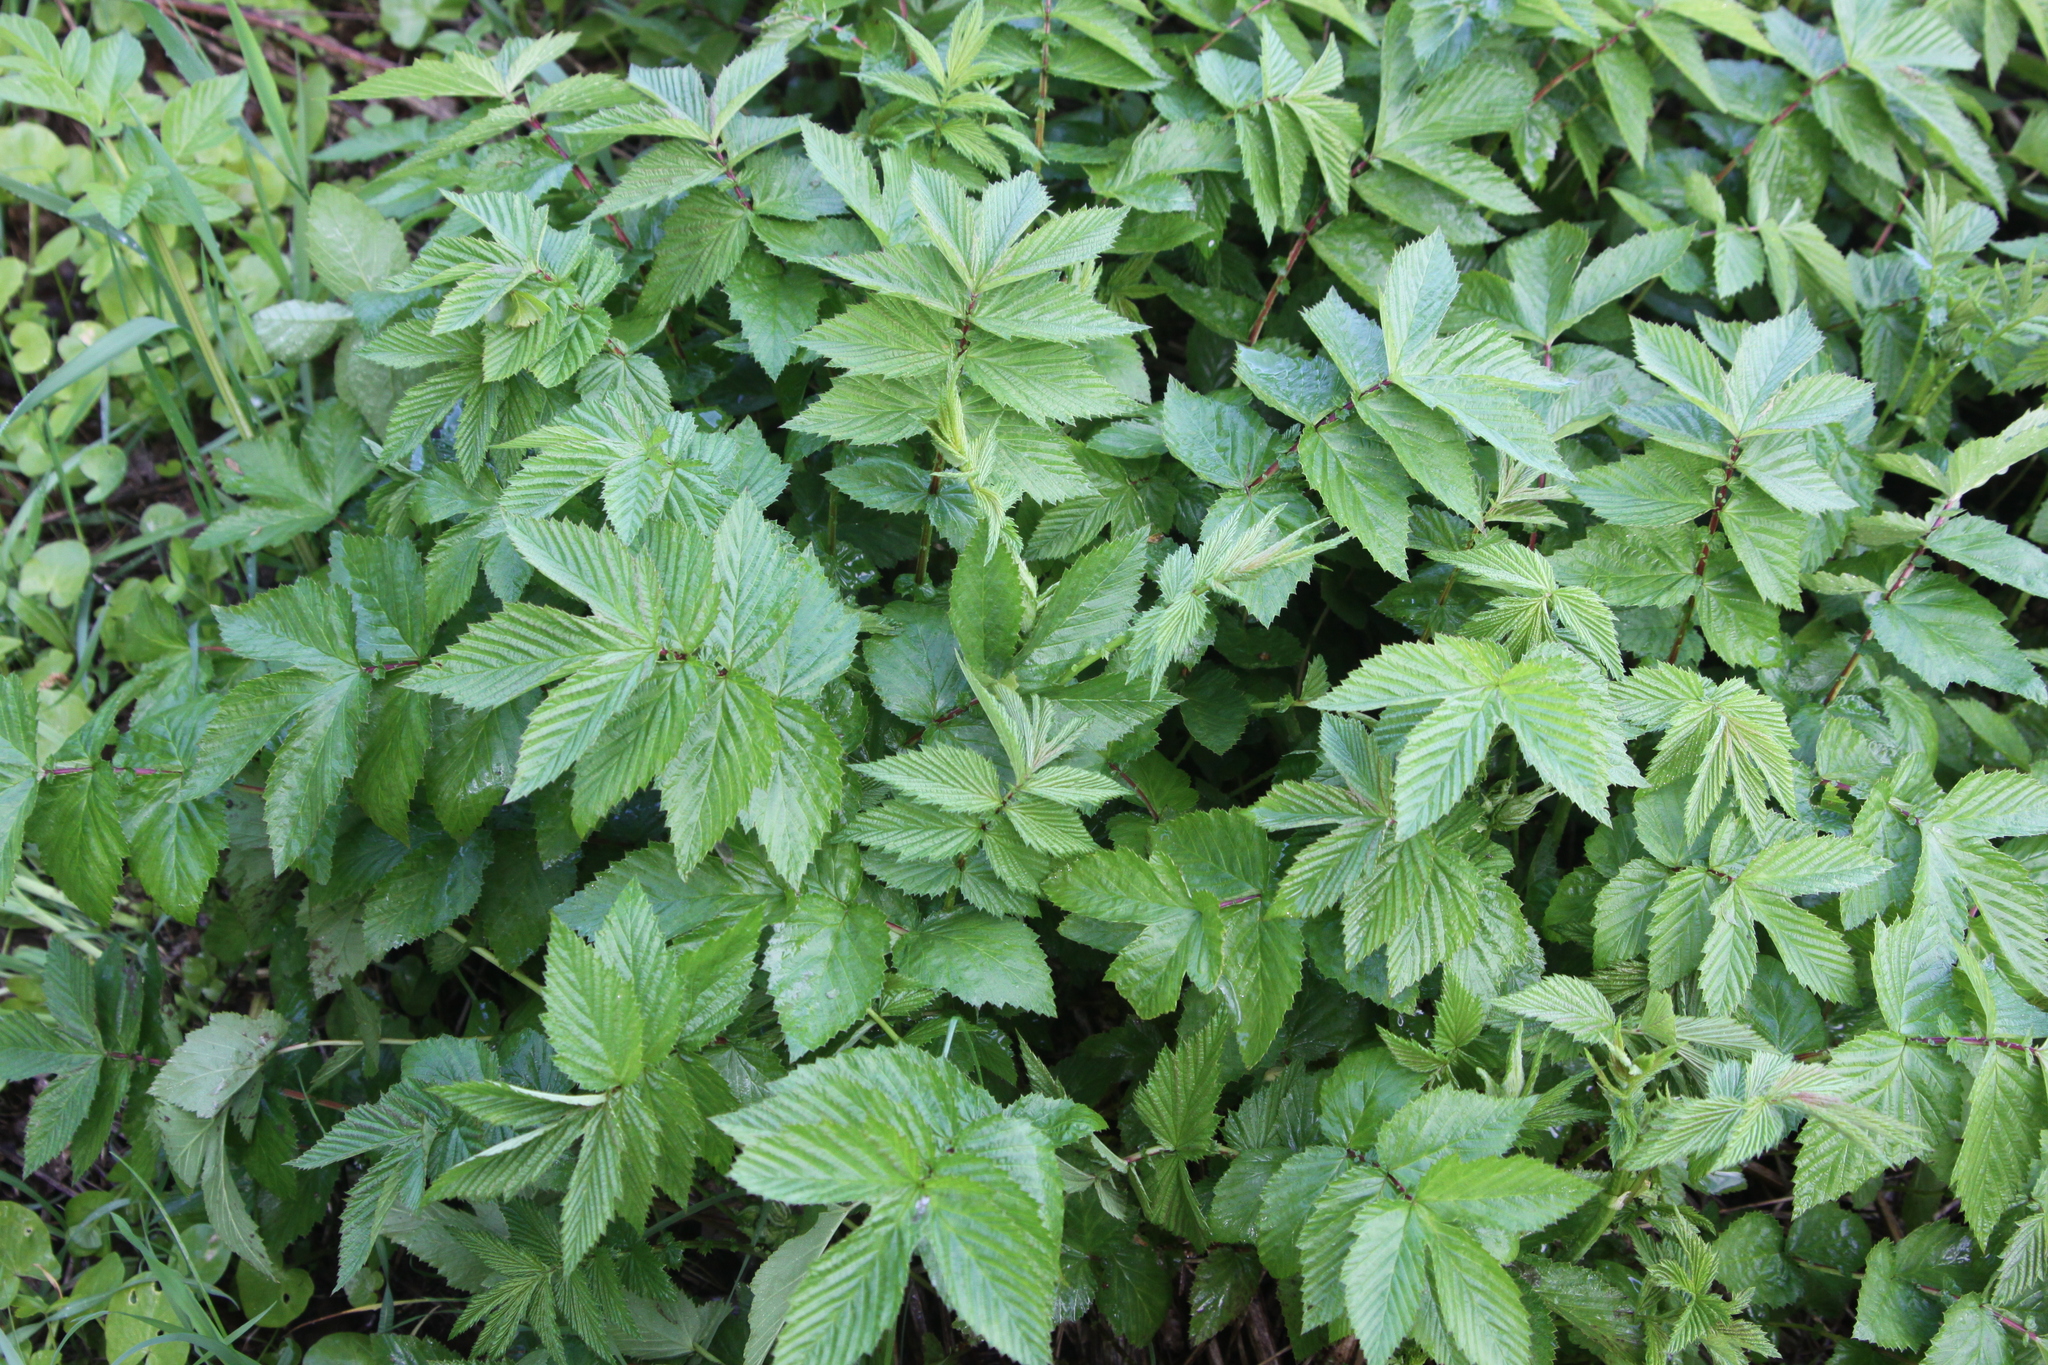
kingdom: Plantae
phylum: Tracheophyta
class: Magnoliopsida
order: Rosales
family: Rosaceae
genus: Filipendula
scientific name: Filipendula ulmaria
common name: Meadowsweet
